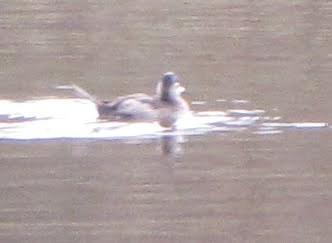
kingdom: Animalia
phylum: Chordata
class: Aves
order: Anseriformes
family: Anatidae
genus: Oxyura
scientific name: Oxyura jamaicensis
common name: Ruddy duck
